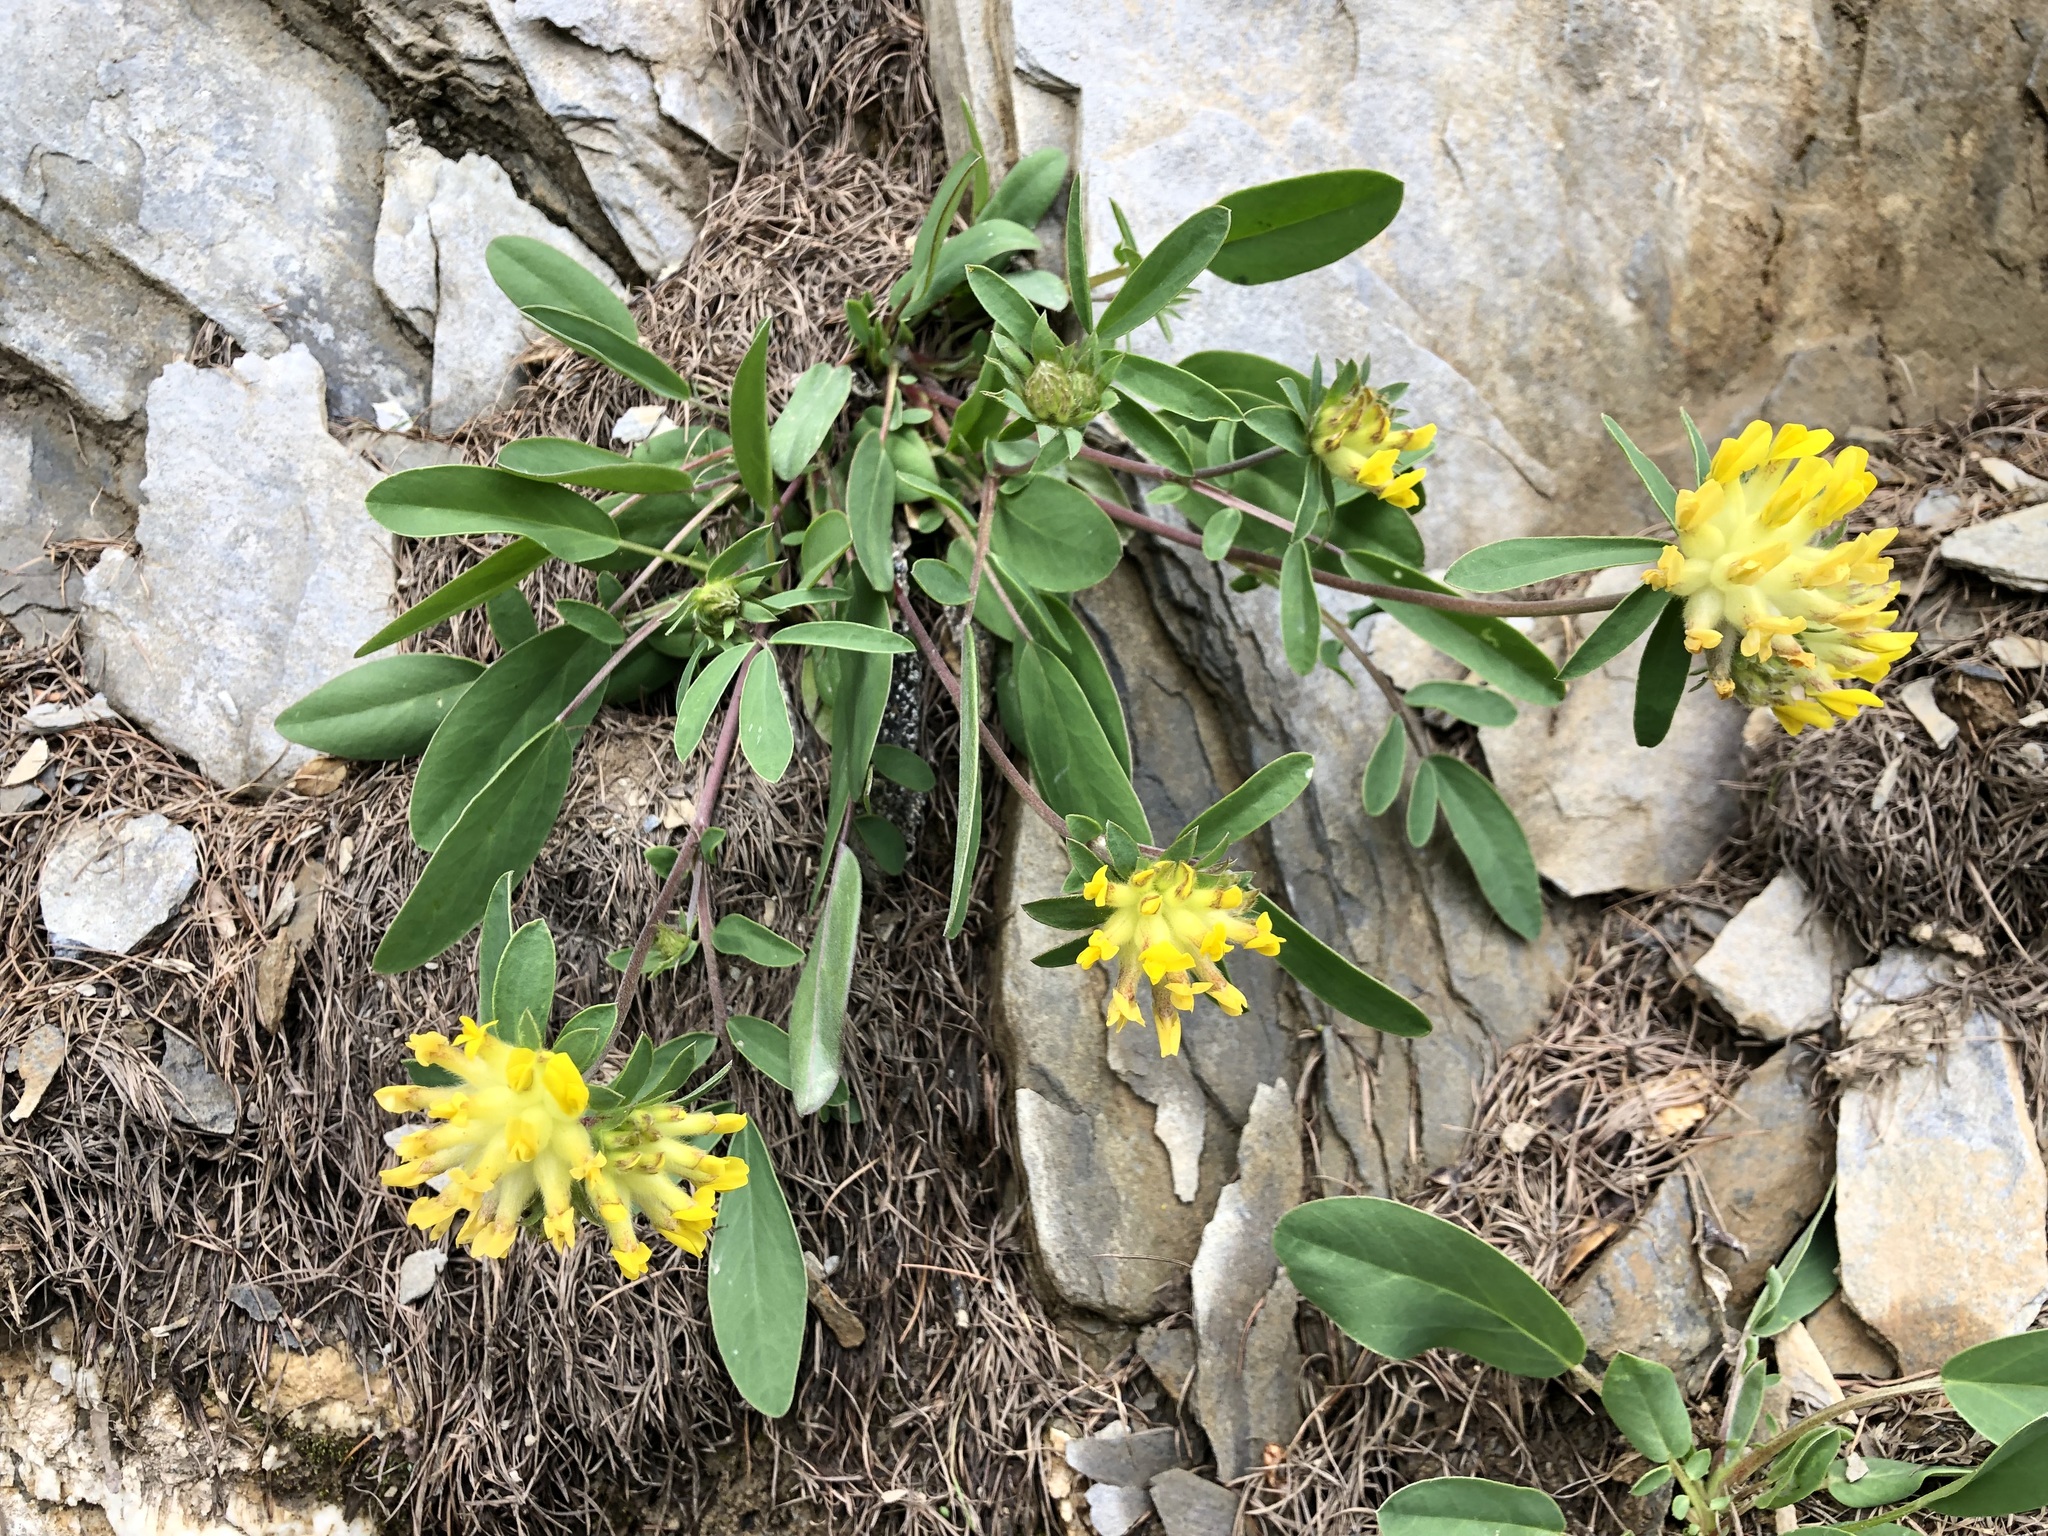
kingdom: Plantae
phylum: Tracheophyta
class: Magnoliopsida
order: Fabales
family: Fabaceae
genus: Anthyllis
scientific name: Anthyllis vulneraria
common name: Kidney vetch
